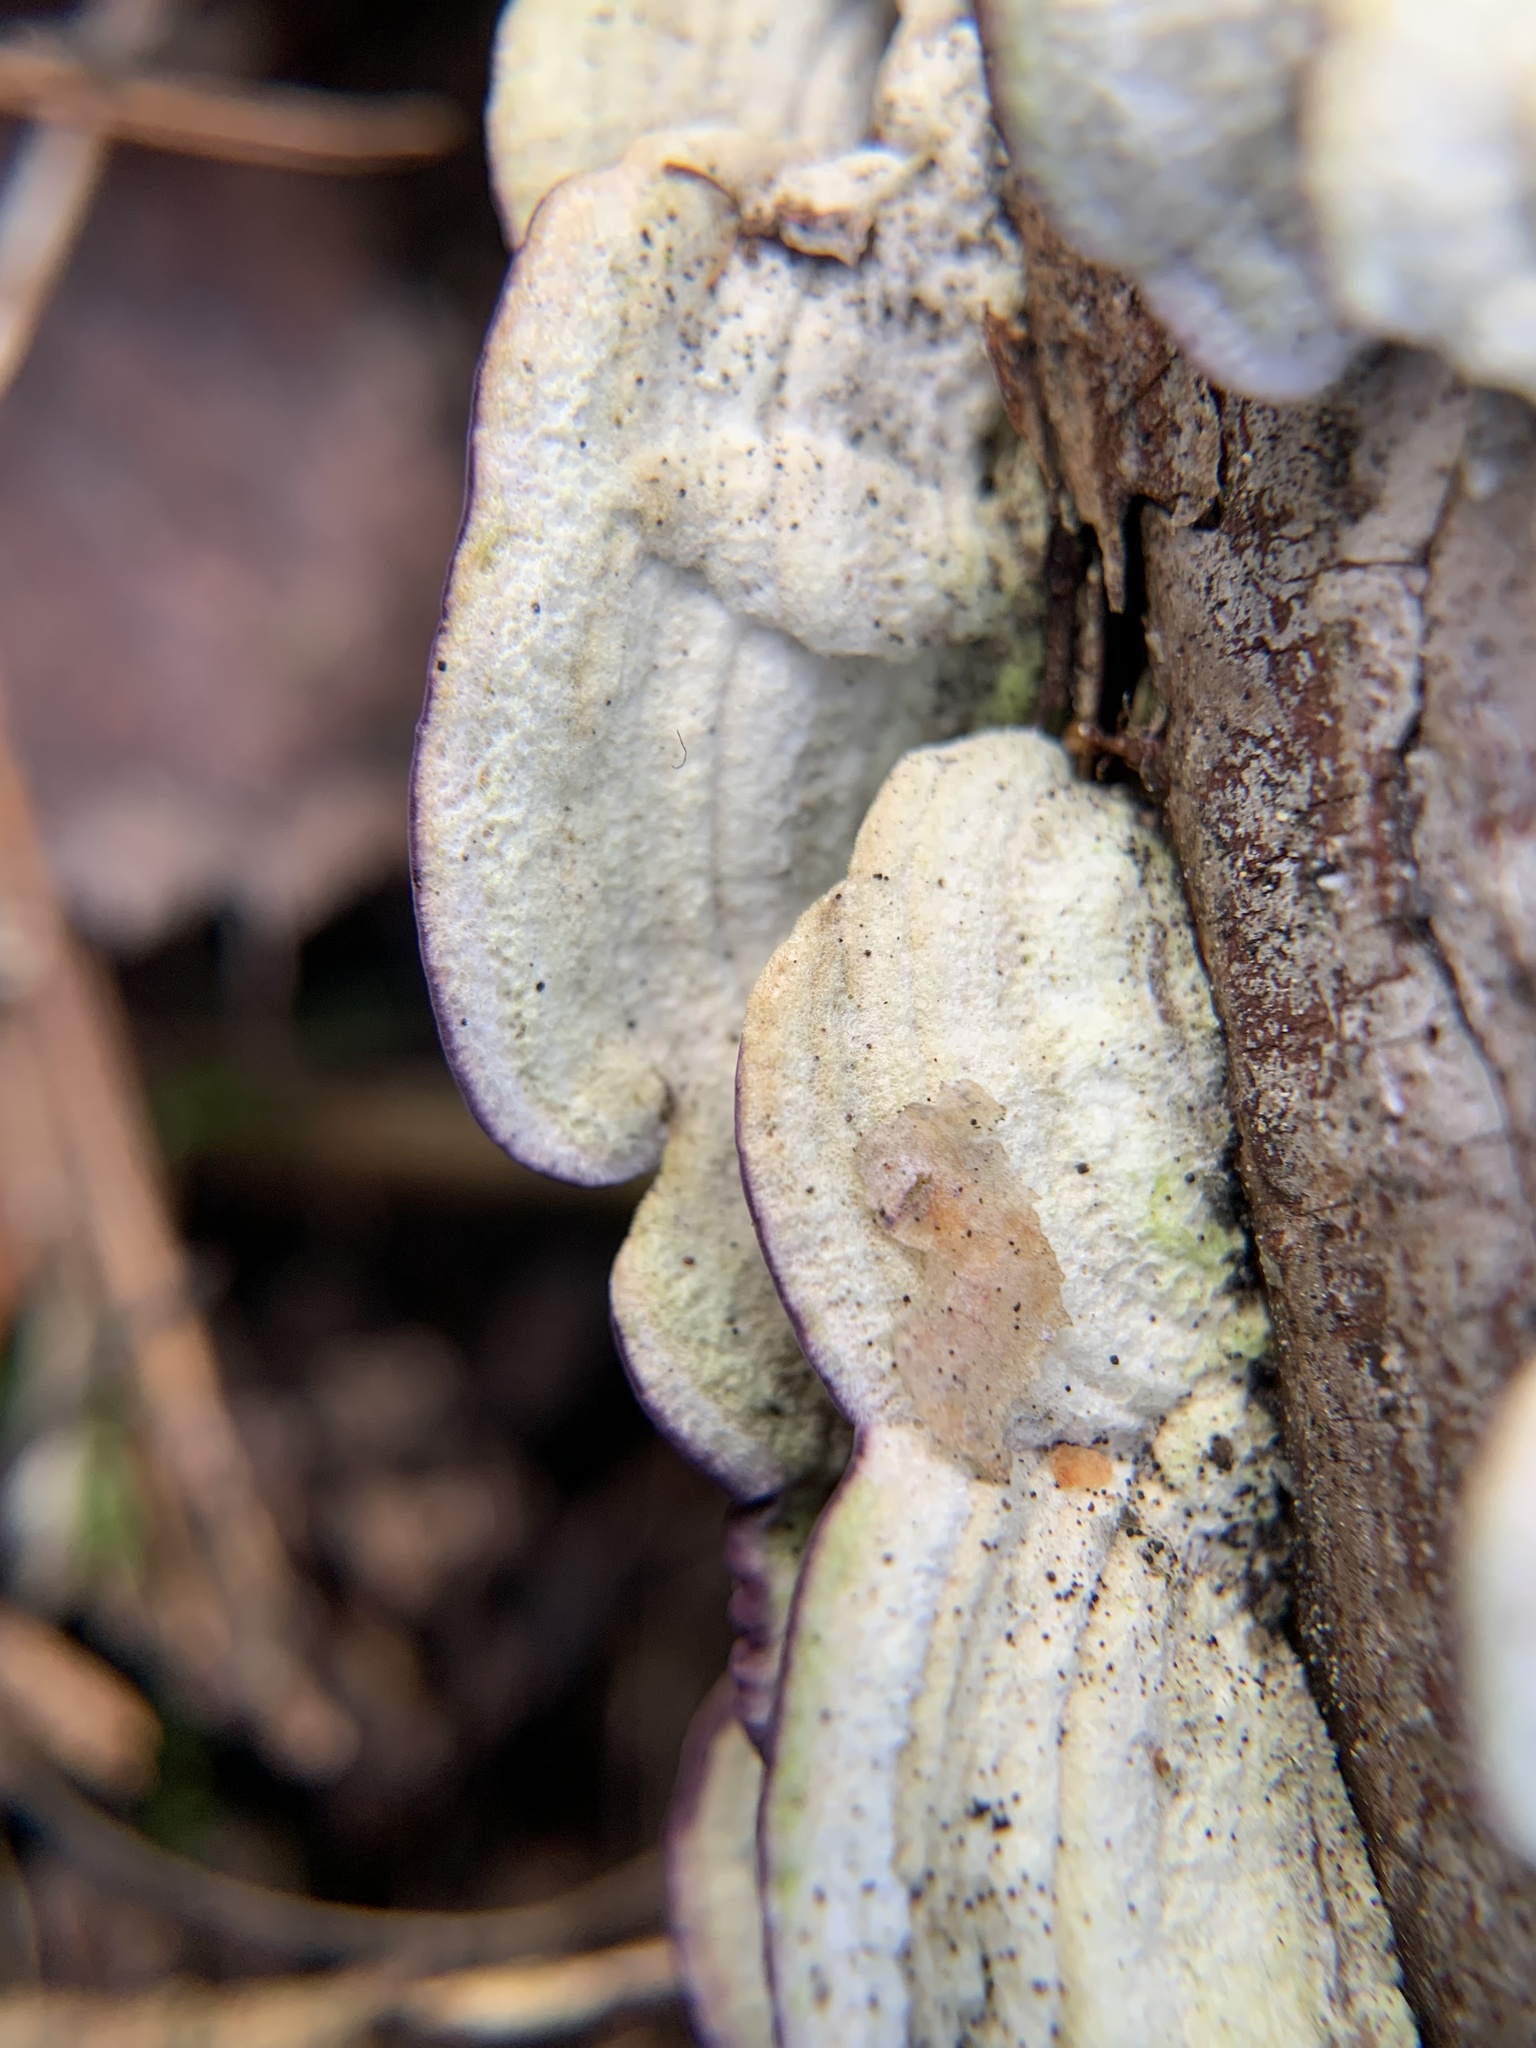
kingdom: Fungi
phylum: Basidiomycota
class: Agaricomycetes
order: Hymenochaetales
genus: Trichaptum
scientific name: Trichaptum abietinum
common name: Purplepore bracket
